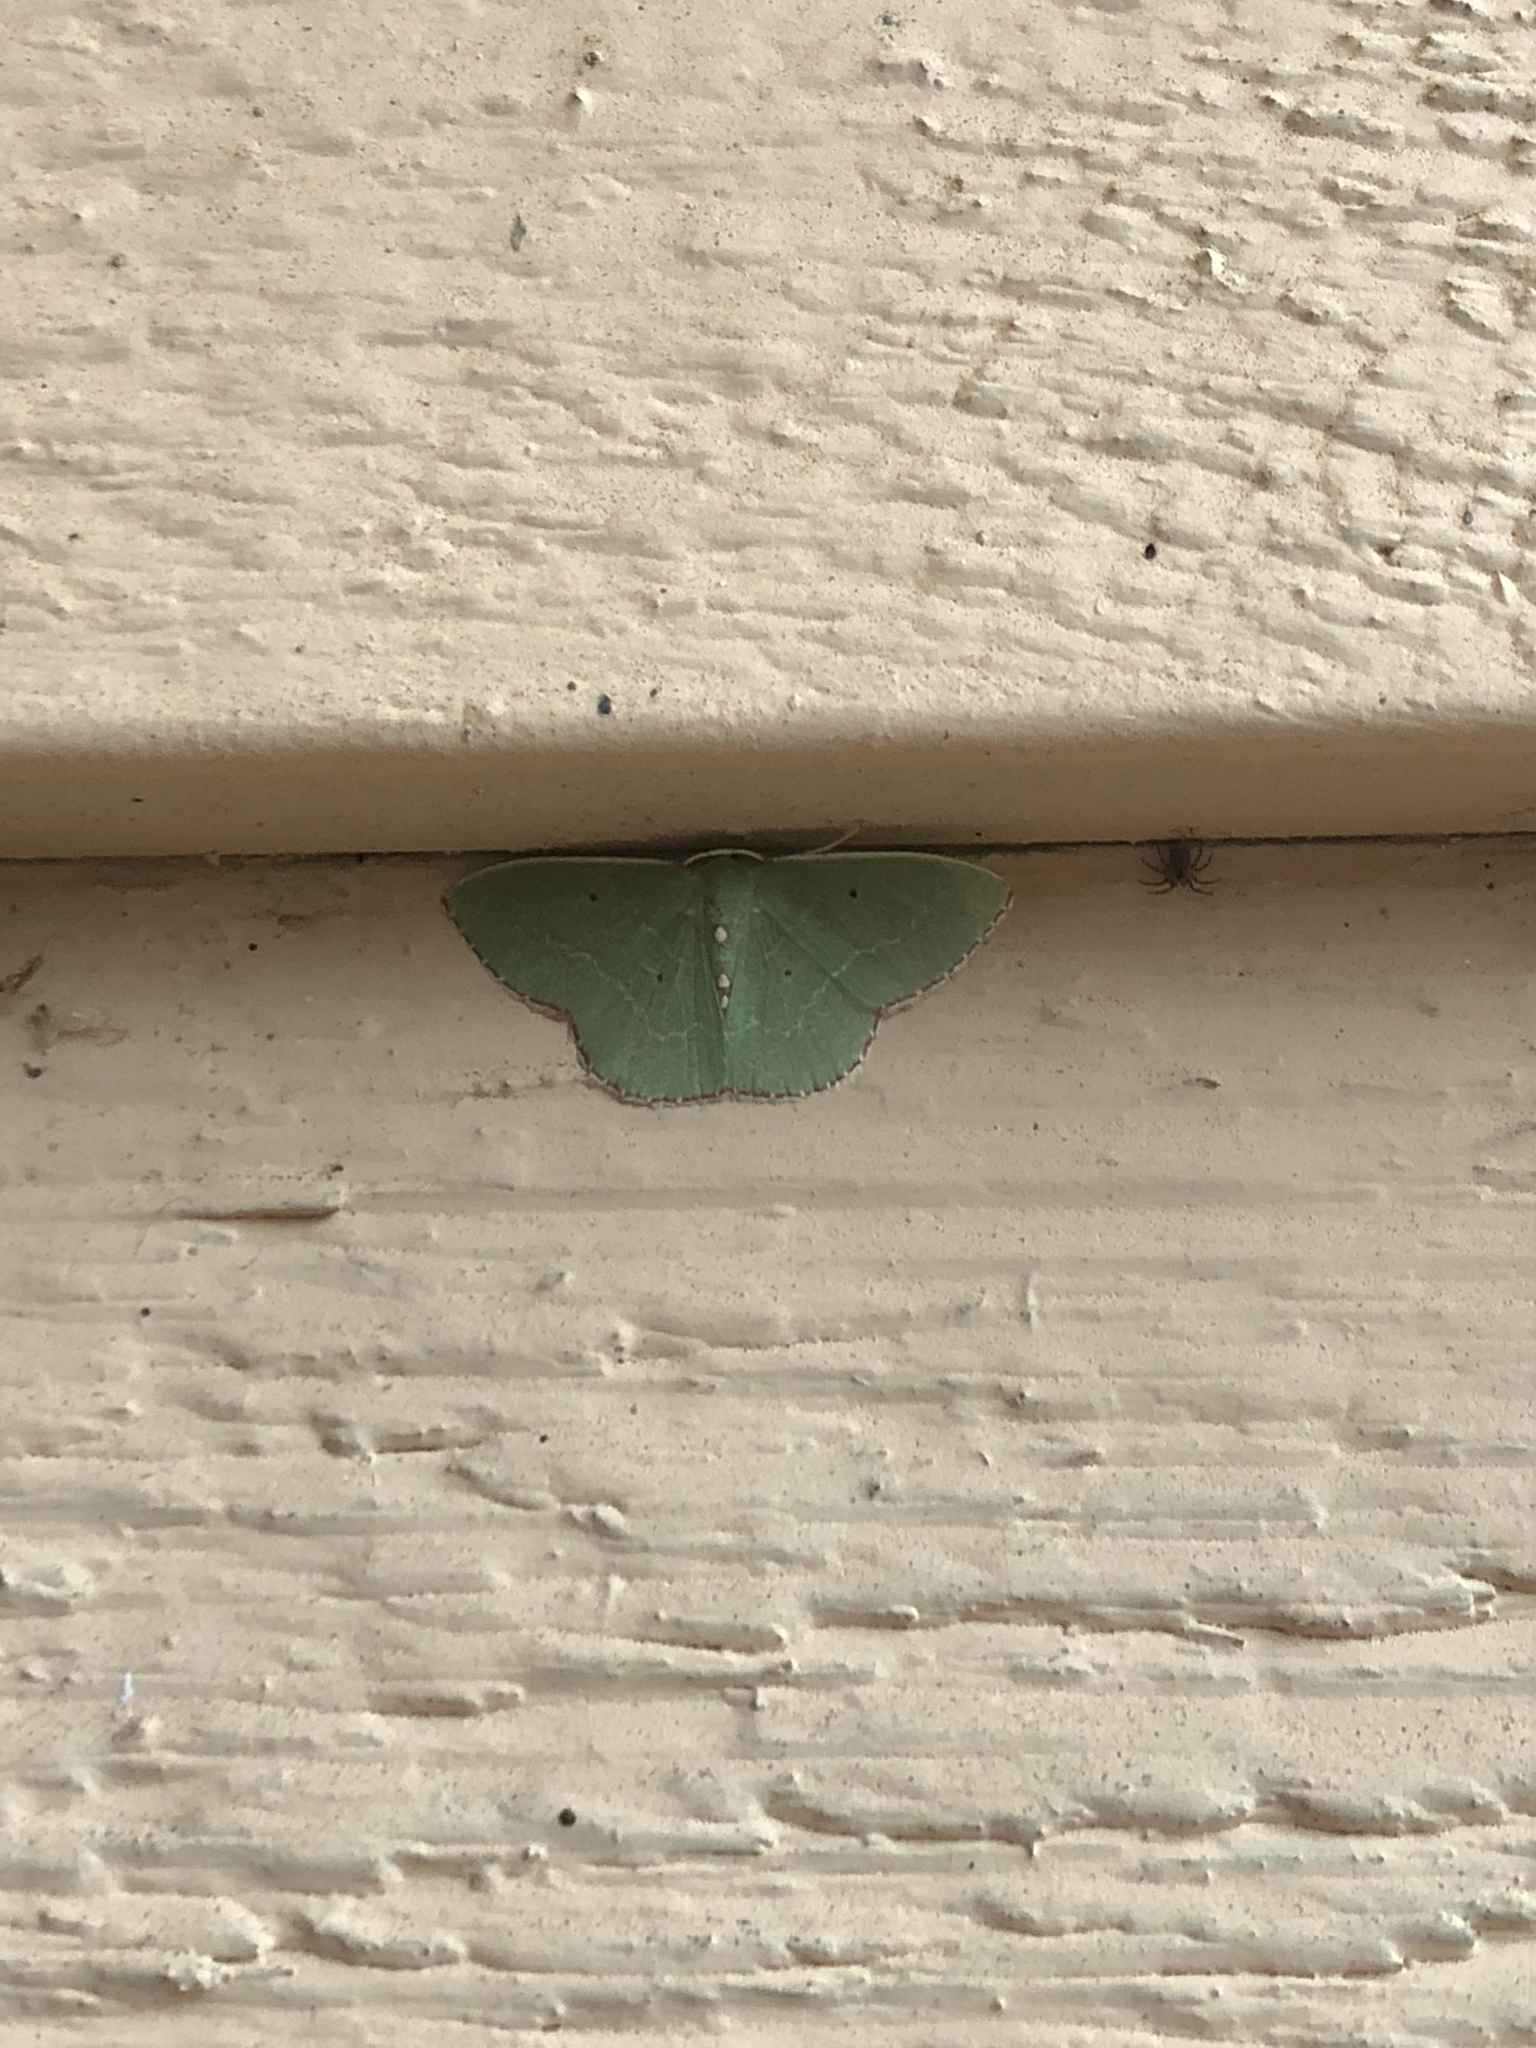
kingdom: Animalia
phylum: Arthropoda
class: Insecta
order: Lepidoptera
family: Geometridae
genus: Nemoria
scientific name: Nemoria lixaria
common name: Red-bordered emerald
